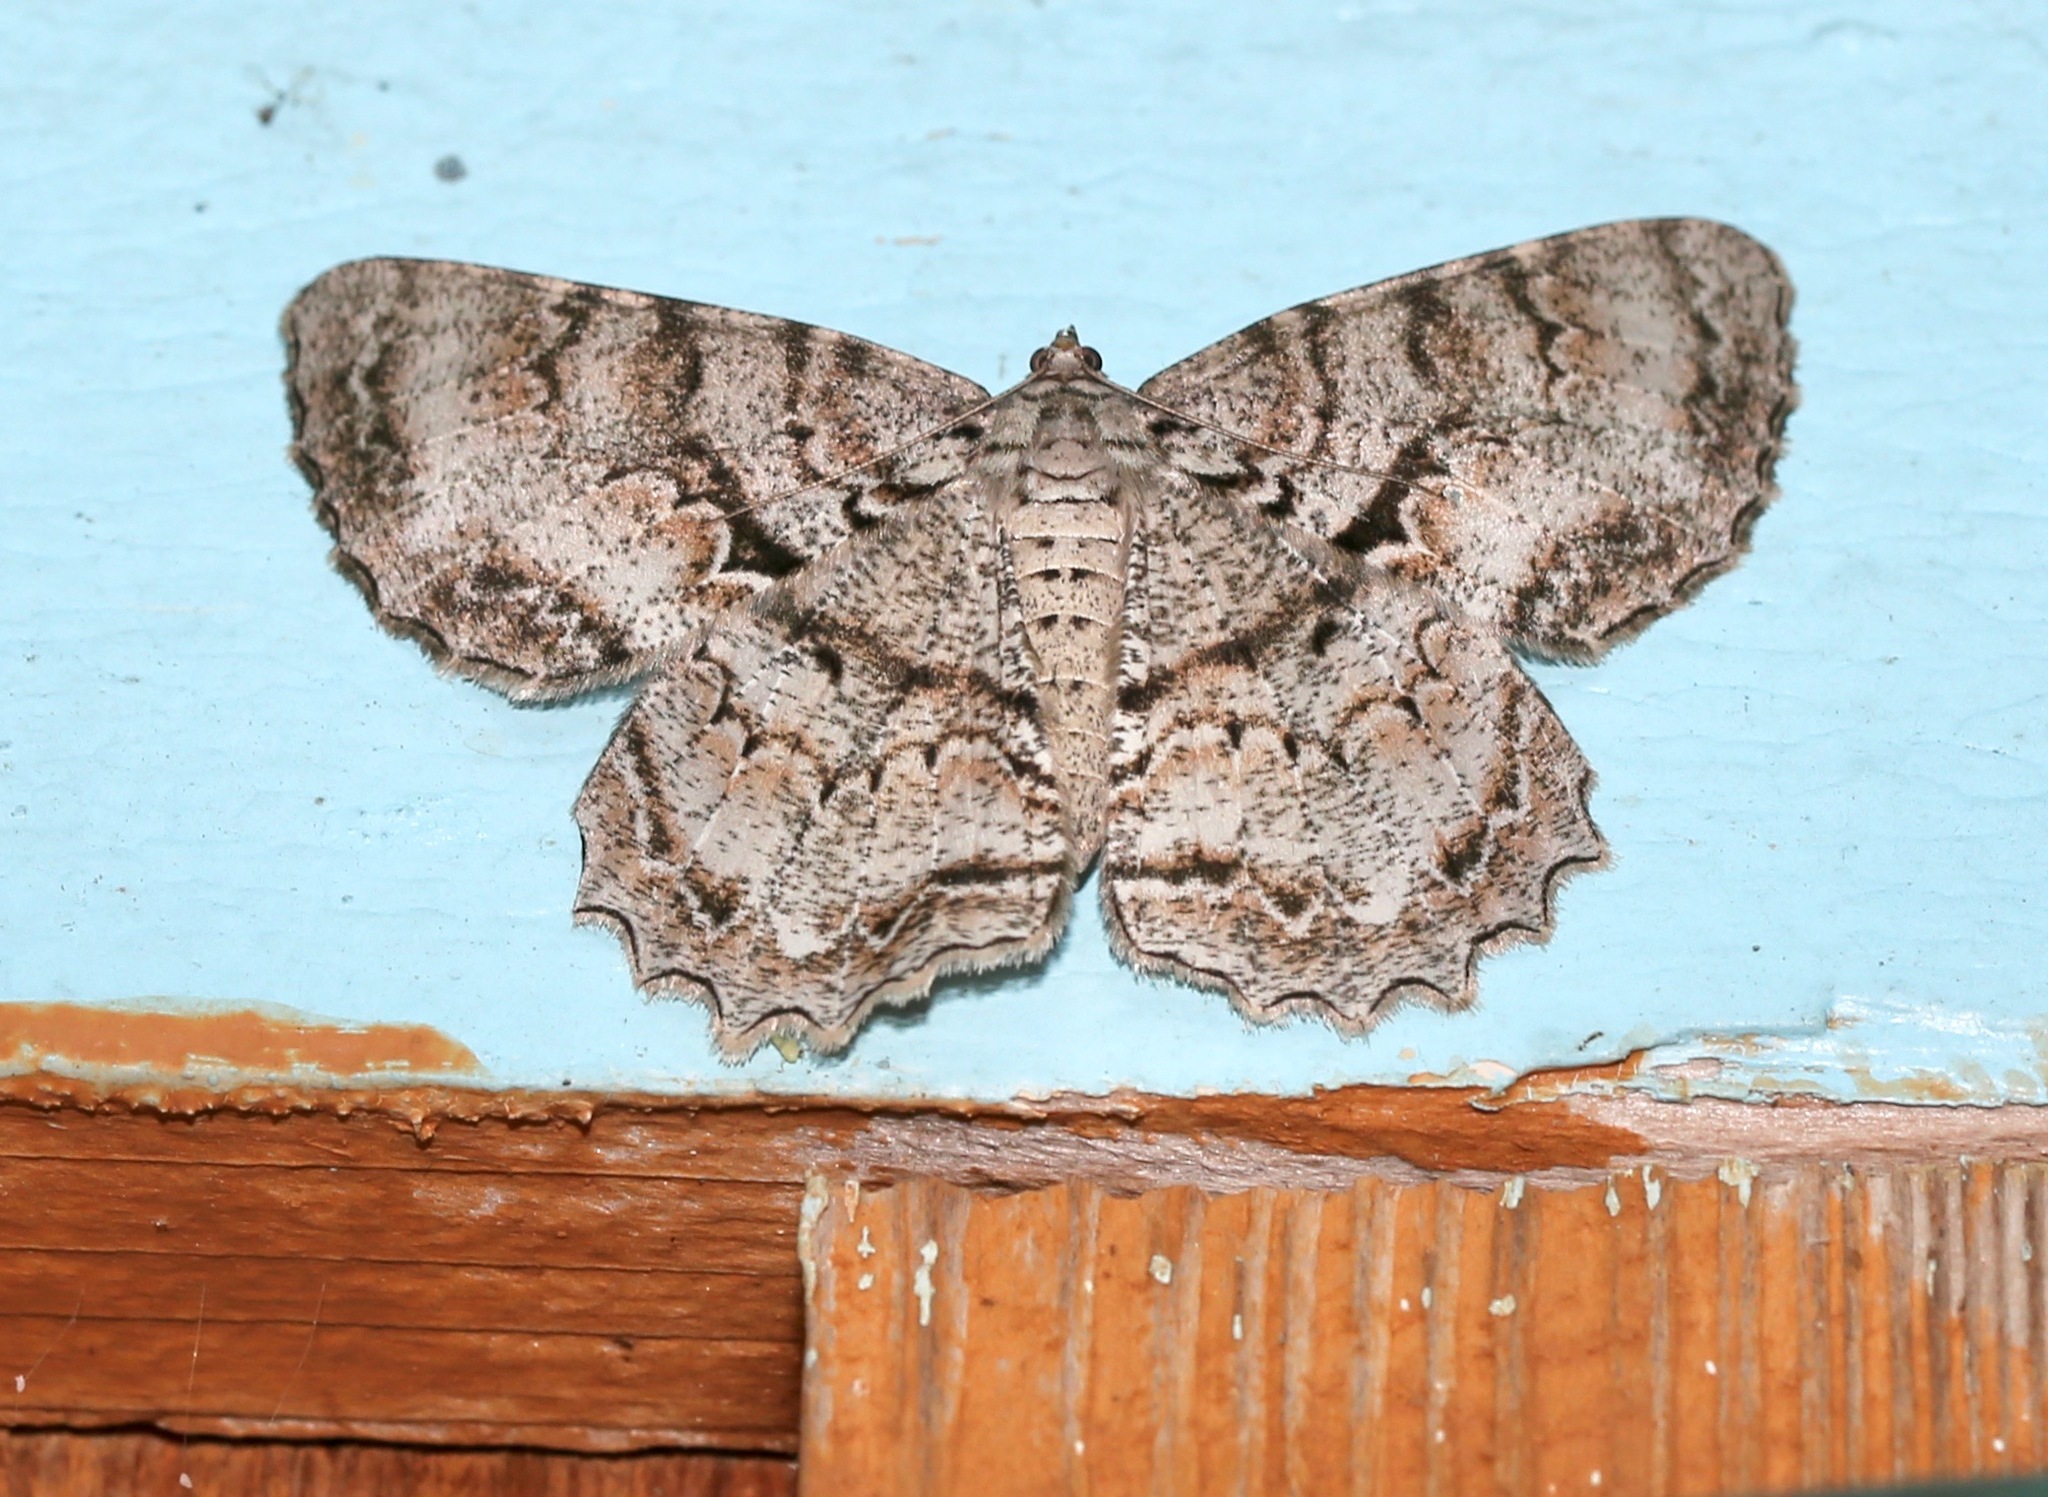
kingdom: Animalia
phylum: Arthropoda
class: Insecta
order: Lepidoptera
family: Geometridae
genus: Epimecis
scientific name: Epimecis hortaria
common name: Tulip-tree beauty
